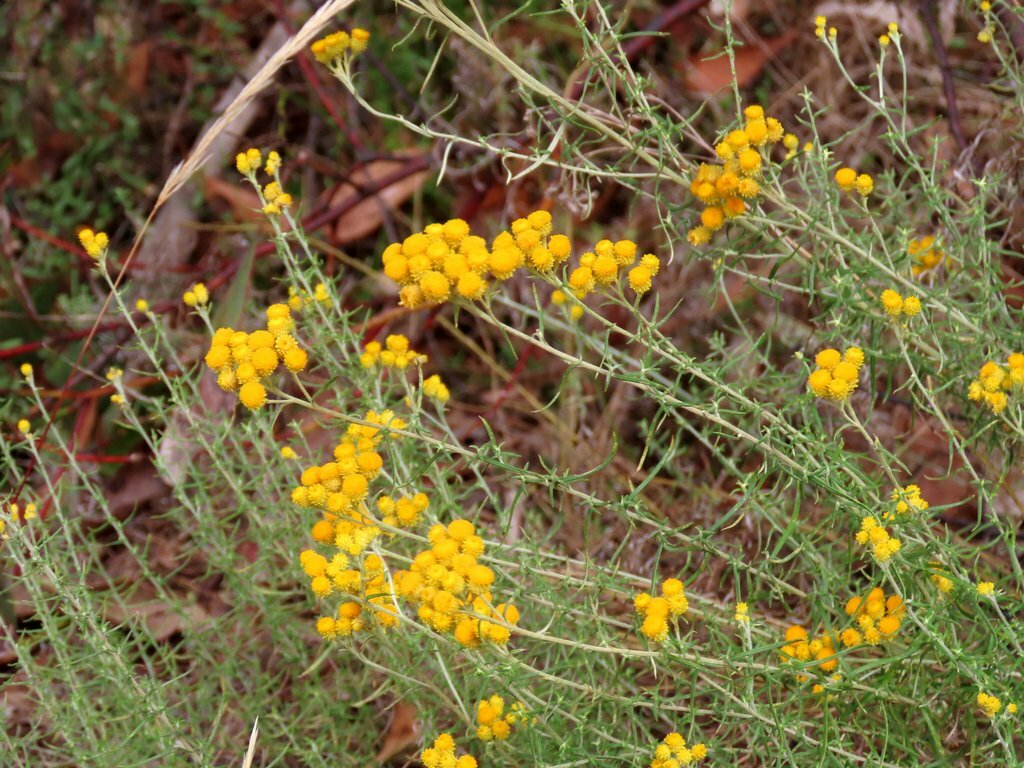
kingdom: Plantae
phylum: Tracheophyta
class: Magnoliopsida
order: Asterales
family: Asteraceae
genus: Chrysocephalum
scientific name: Chrysocephalum semipapposum
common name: Clustered everlasting
